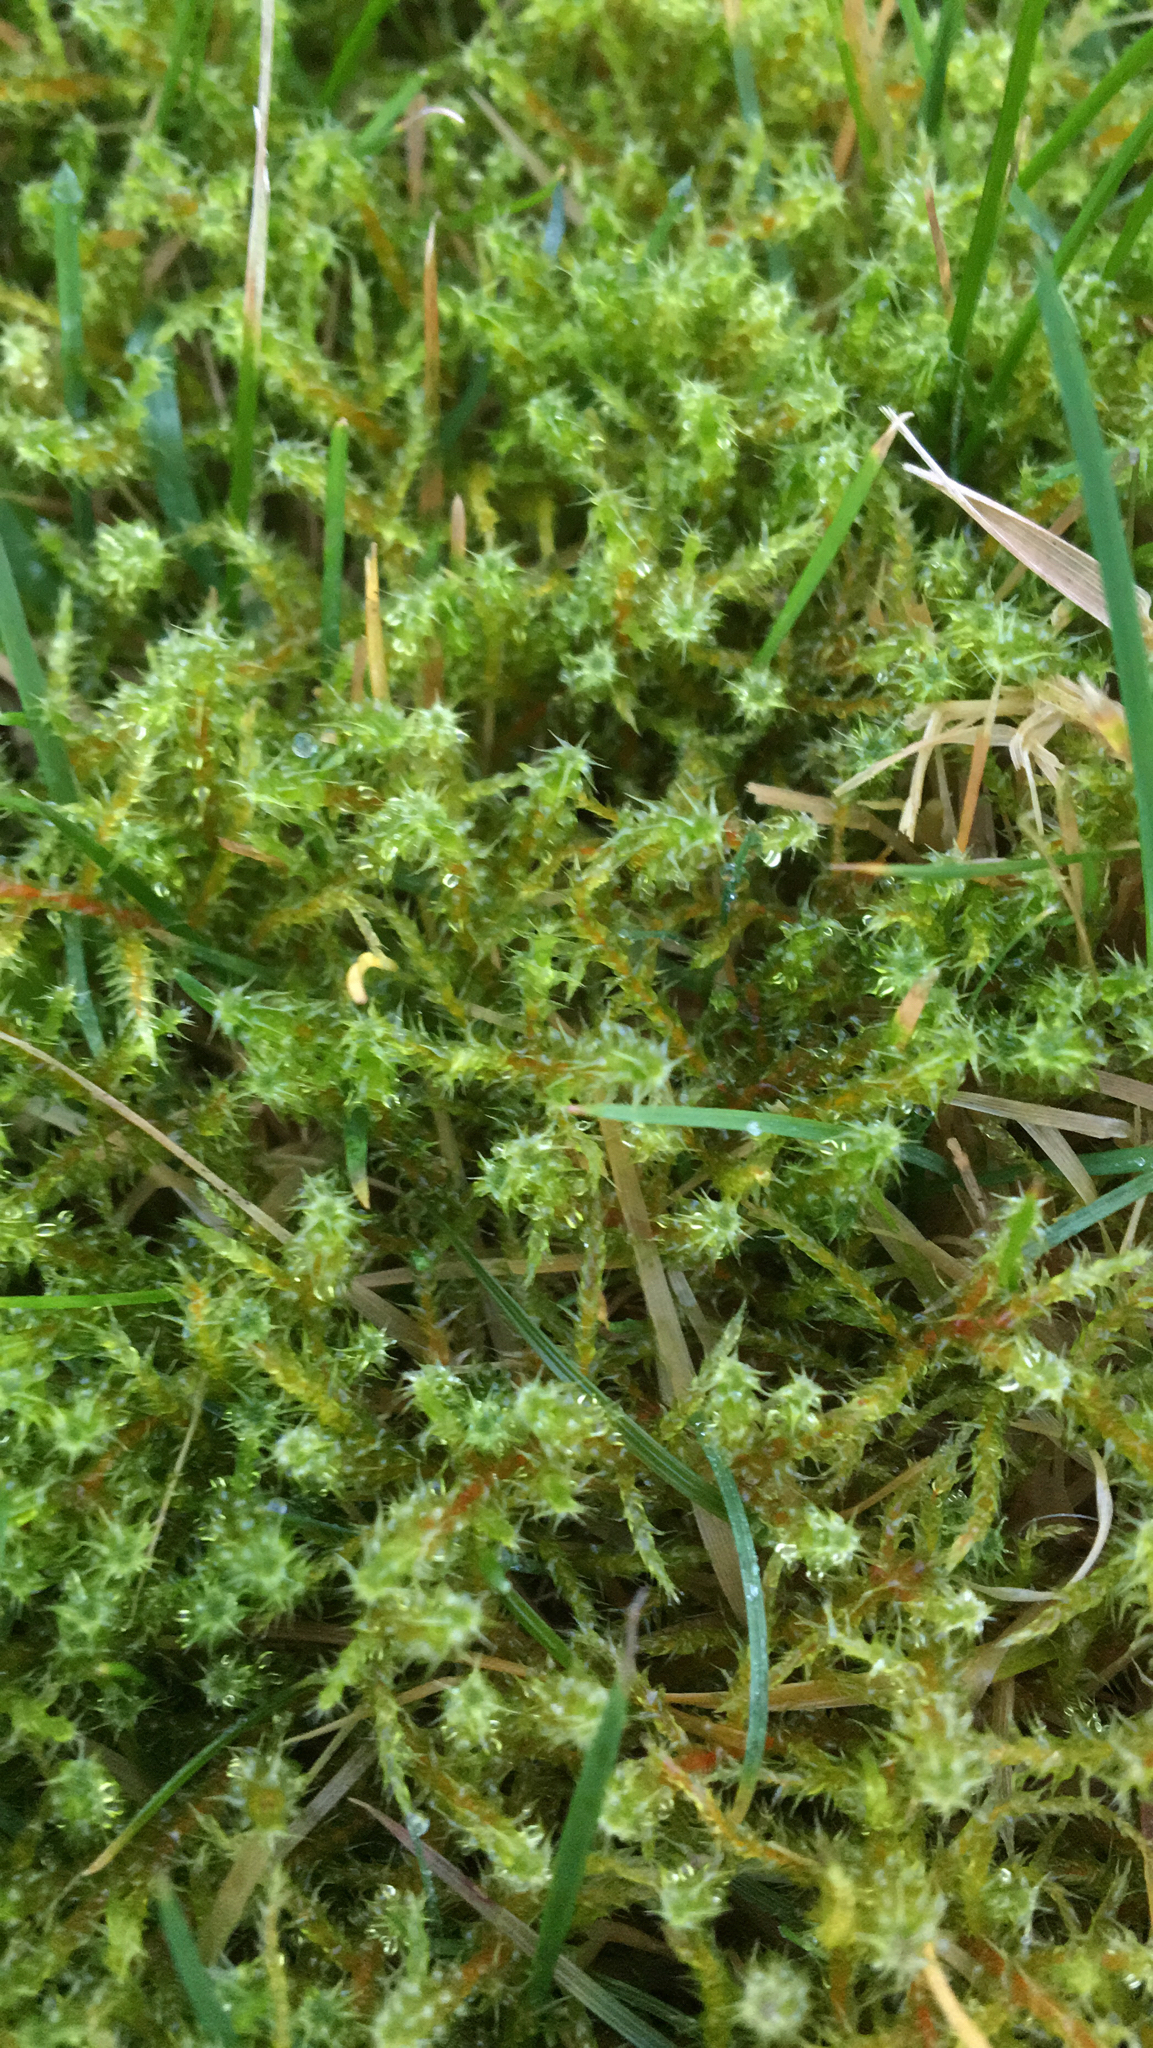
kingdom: Plantae
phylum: Bryophyta
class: Bryopsida
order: Hypnales
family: Hylocomiaceae
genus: Rhytidiadelphus
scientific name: Rhytidiadelphus squarrosus
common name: Springy turf-moss
